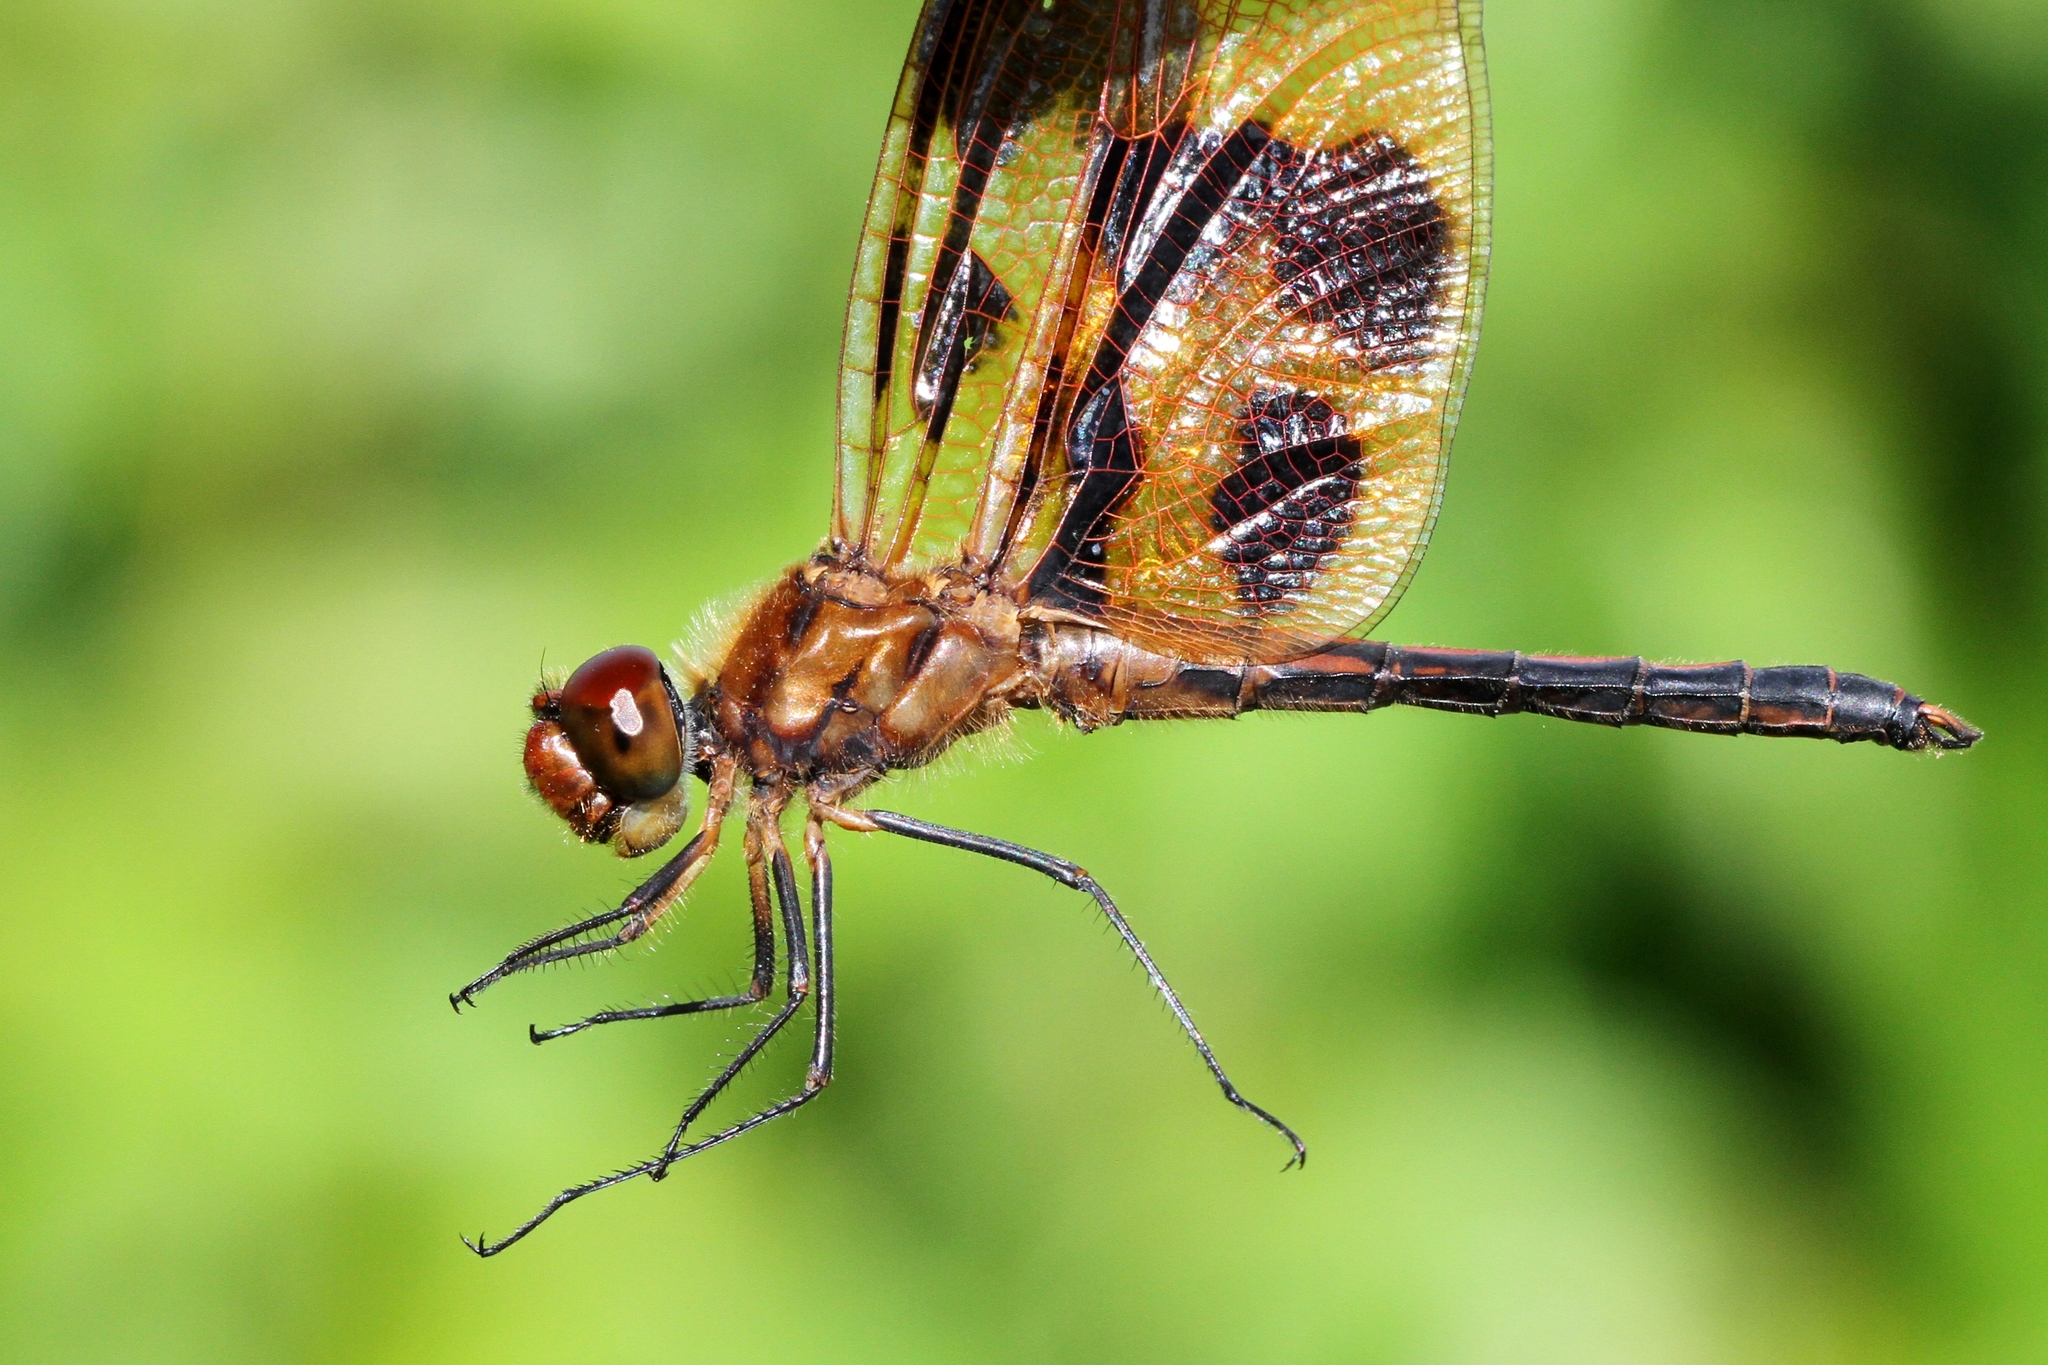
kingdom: Animalia
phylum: Arthropoda
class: Insecta
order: Odonata
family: Libellulidae
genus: Celithemis
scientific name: Celithemis eponina
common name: Halloween pennant
